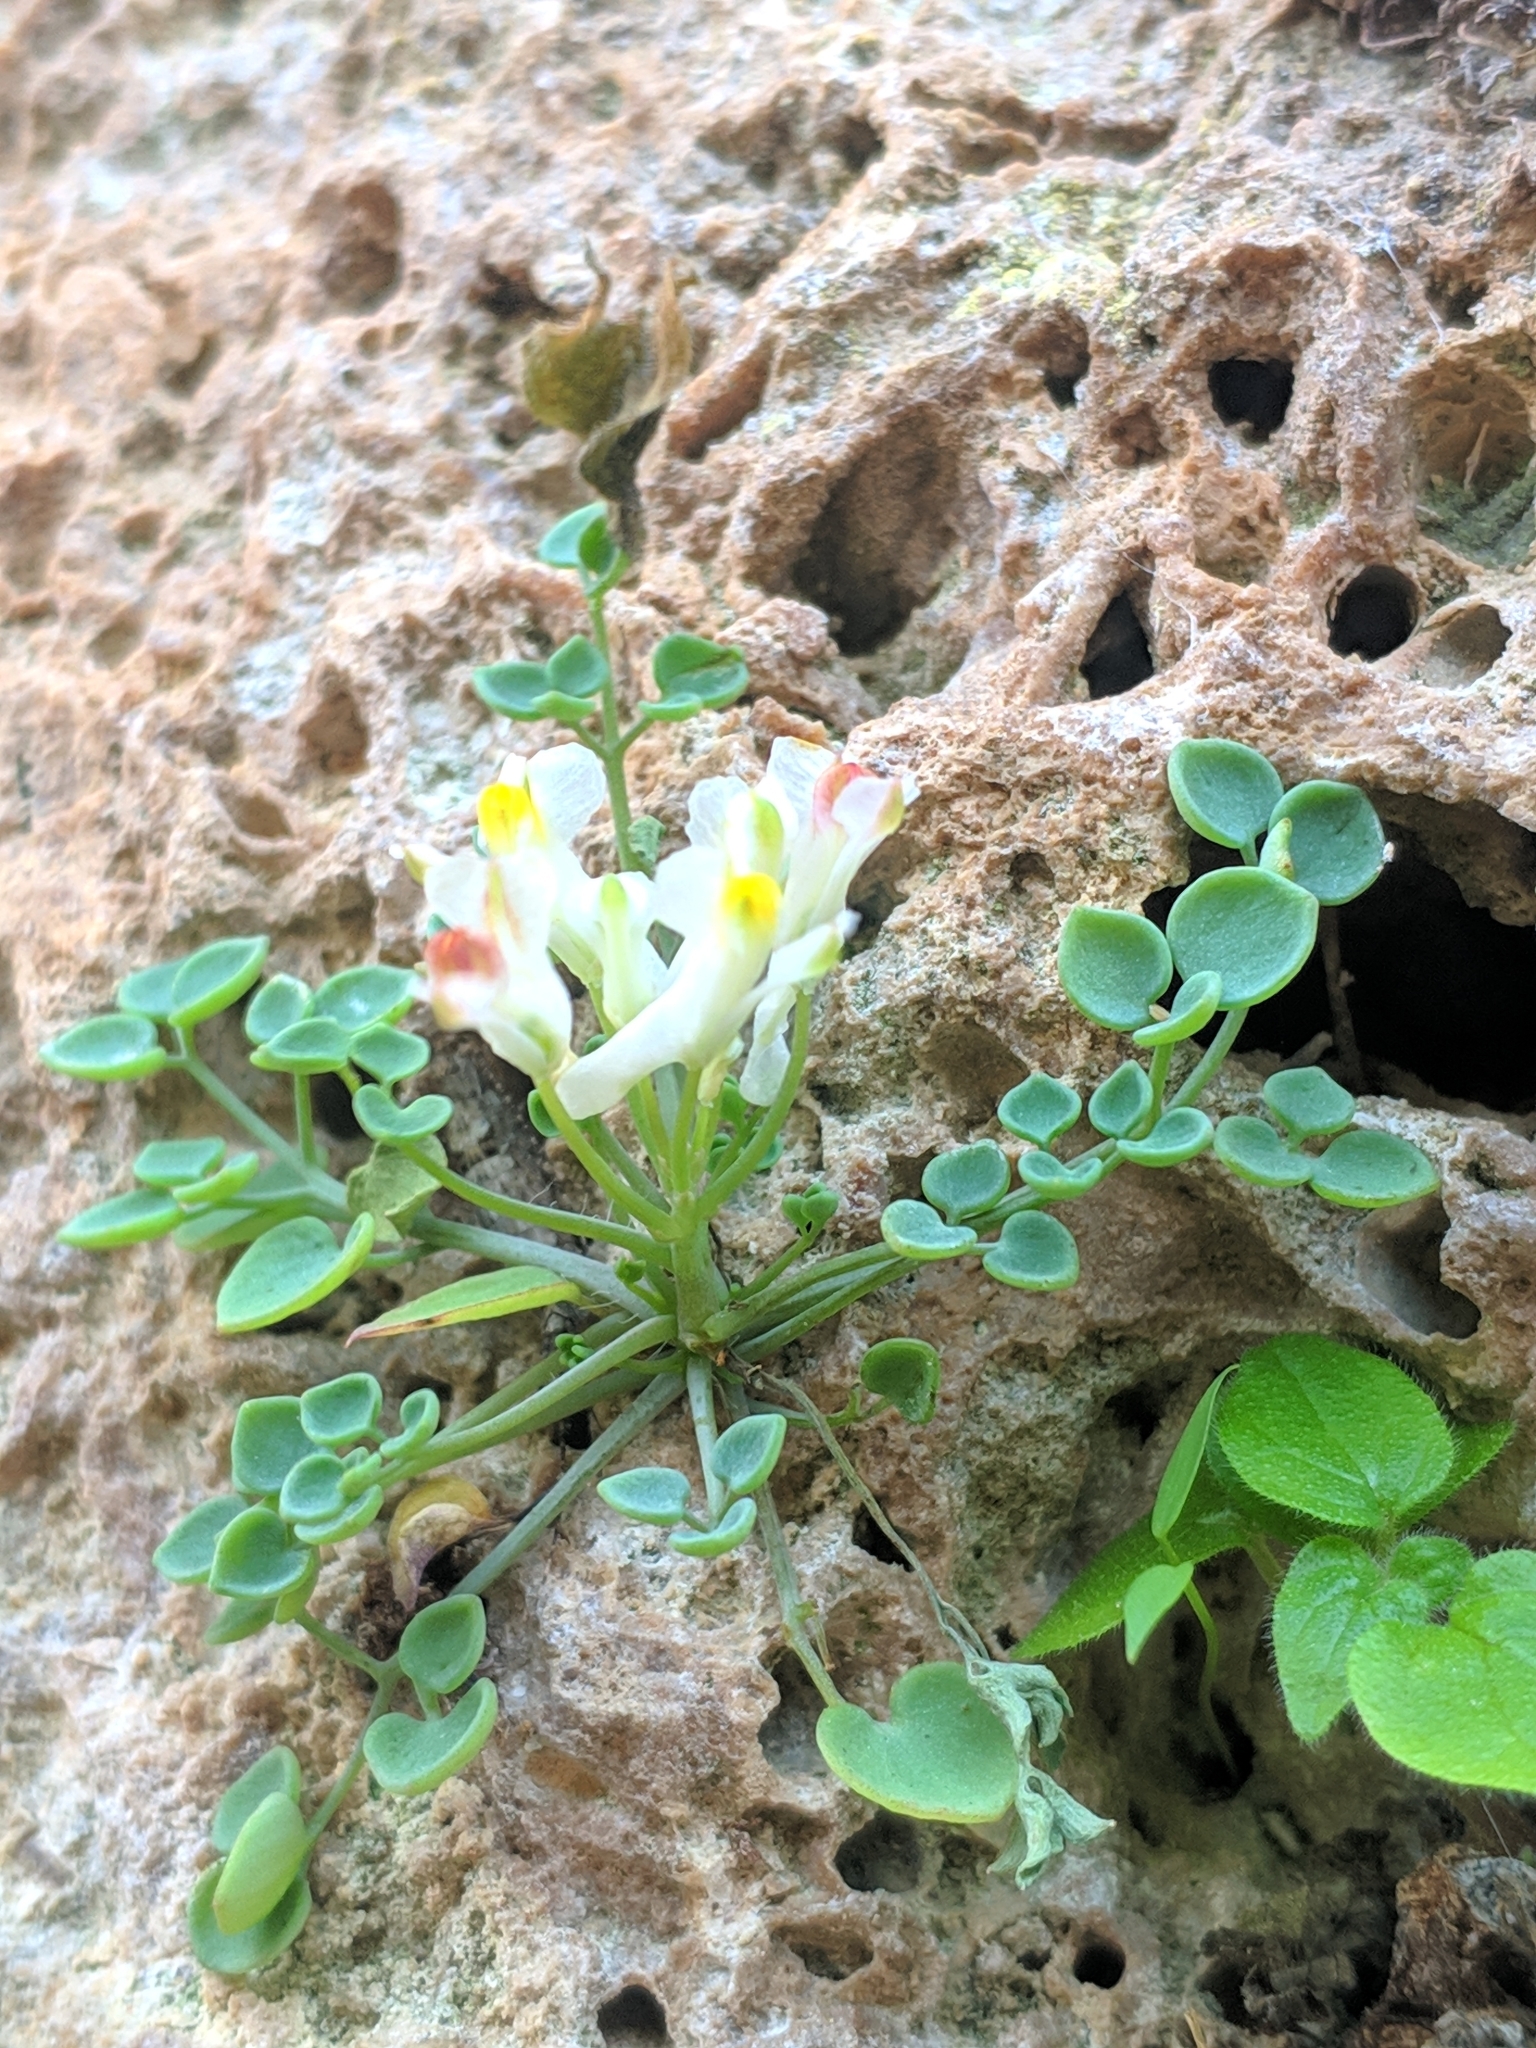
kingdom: Plantae
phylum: Tracheophyta
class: Magnoliopsida
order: Ranunculales
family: Papaveraceae
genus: Sarcocapnos
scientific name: Sarcocapnos enneaphylla
